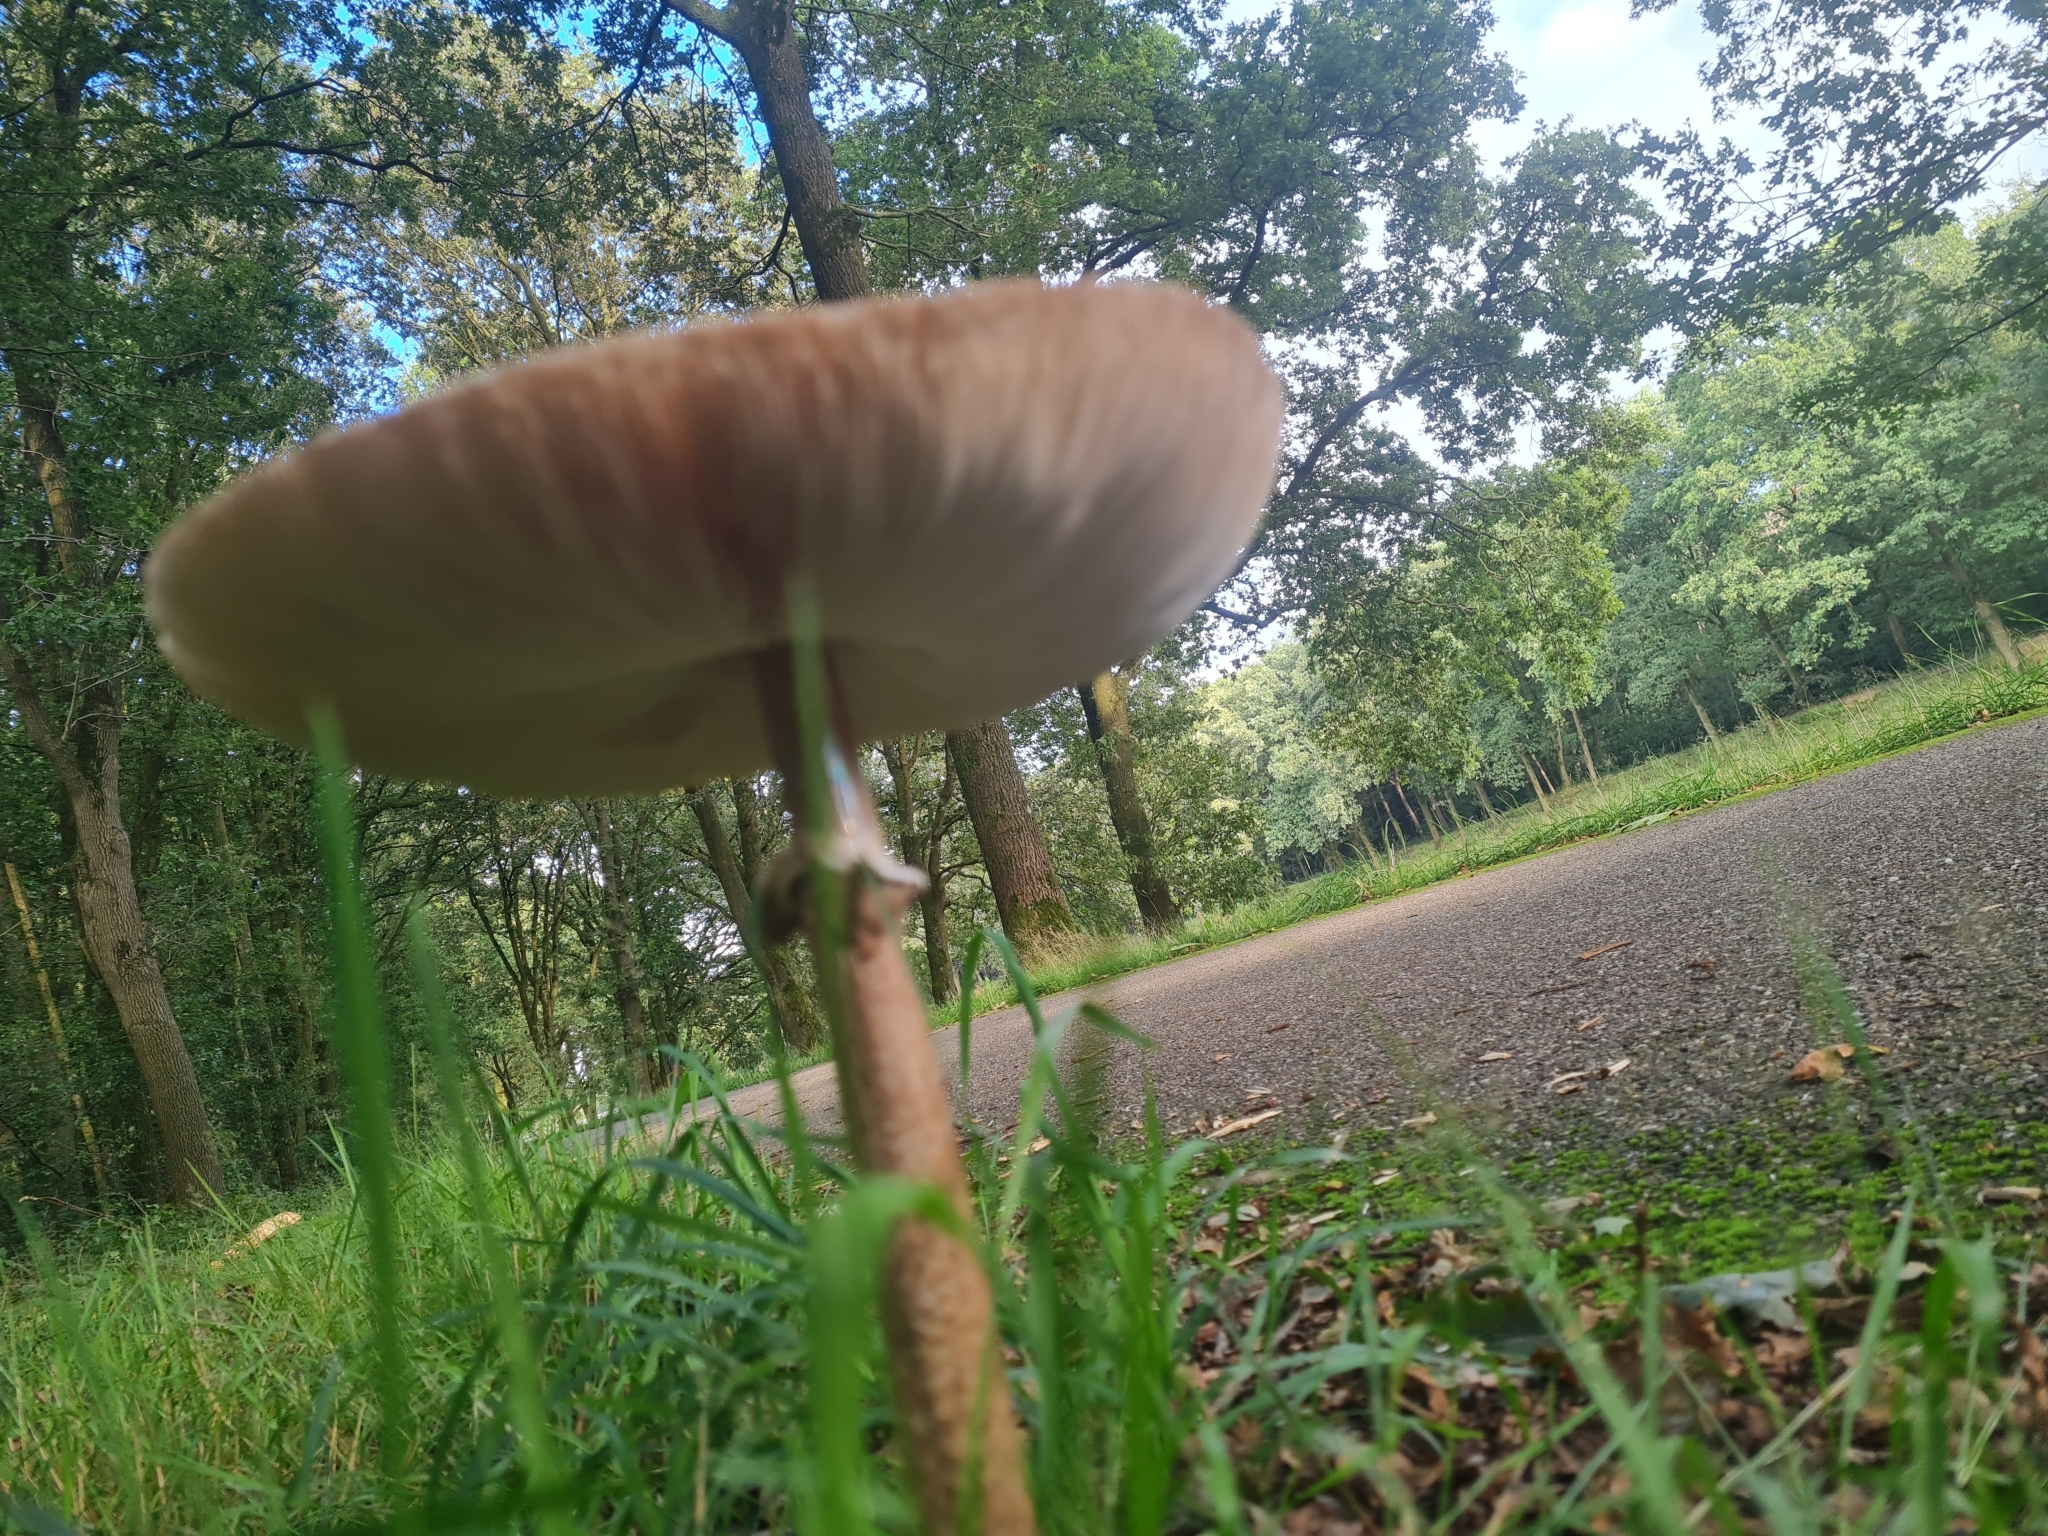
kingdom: Fungi
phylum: Basidiomycota
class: Agaricomycetes
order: Agaricales
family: Agaricaceae
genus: Macrolepiota
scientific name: Macrolepiota procera
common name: Parasol
